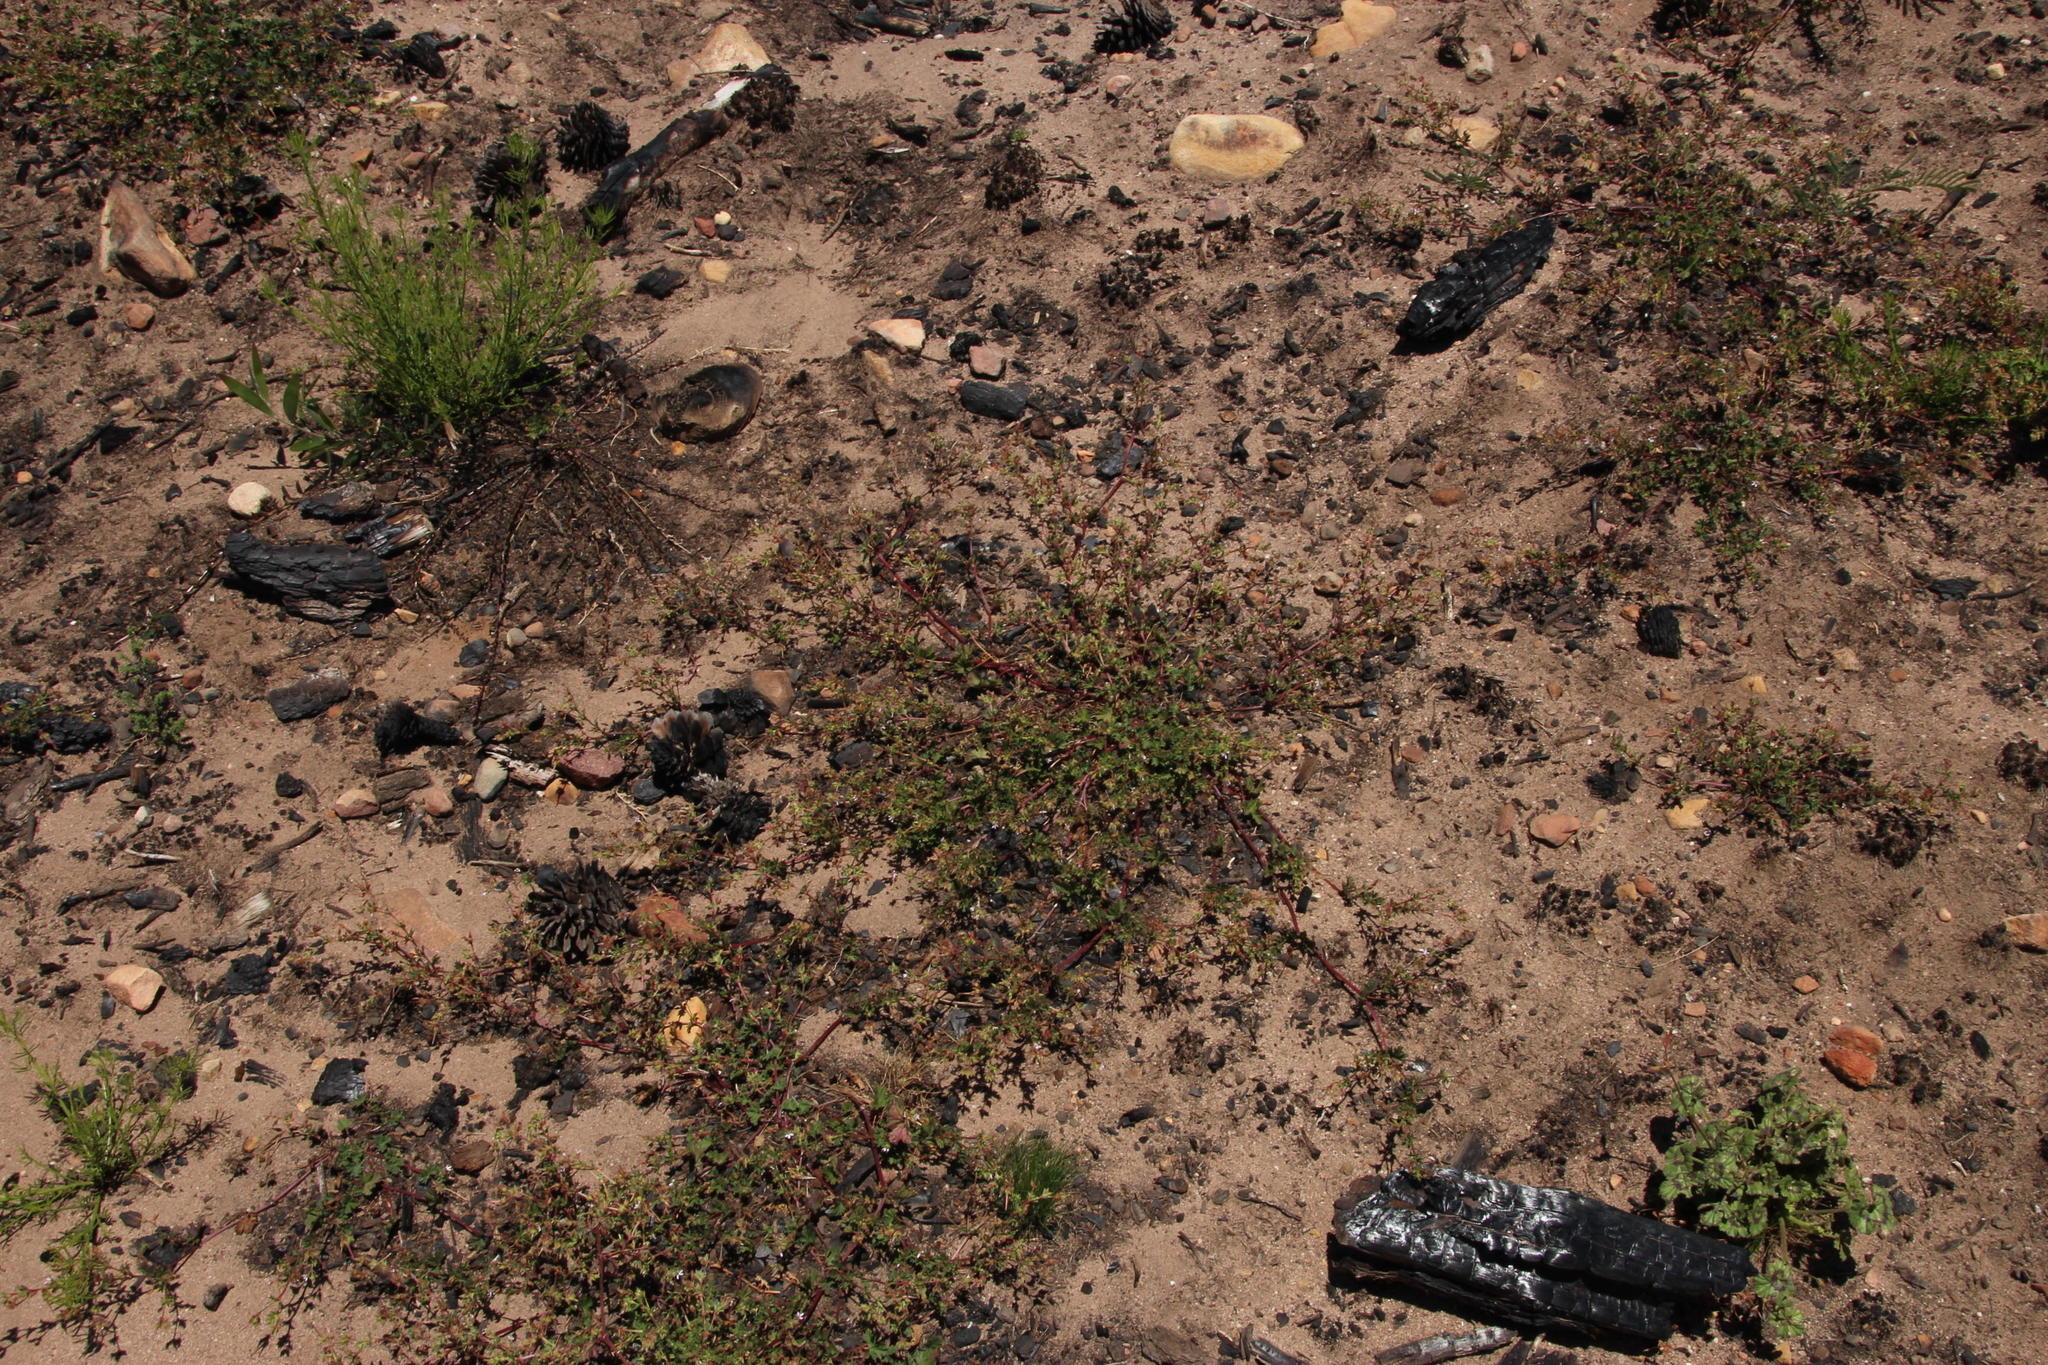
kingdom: Plantae
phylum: Tracheophyta
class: Magnoliopsida
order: Geraniales
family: Geraniaceae
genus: Pelargonium
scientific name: Pelargonium althaeoides
